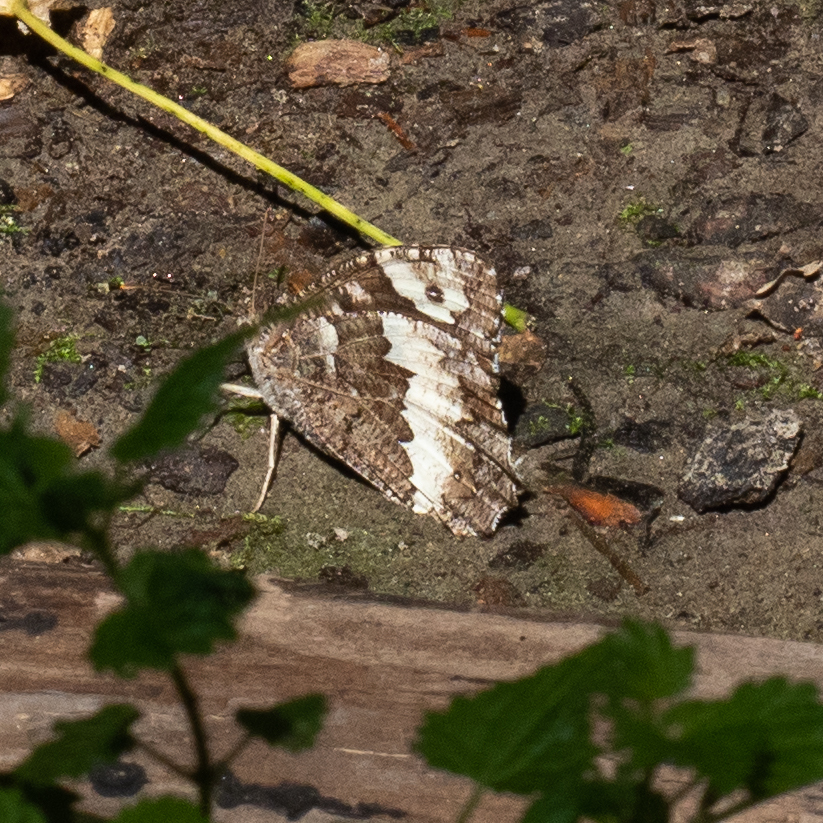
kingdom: Animalia
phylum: Arthropoda
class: Insecta
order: Lepidoptera
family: Lycaenidae
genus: Loweia
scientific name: Loweia tityrus
